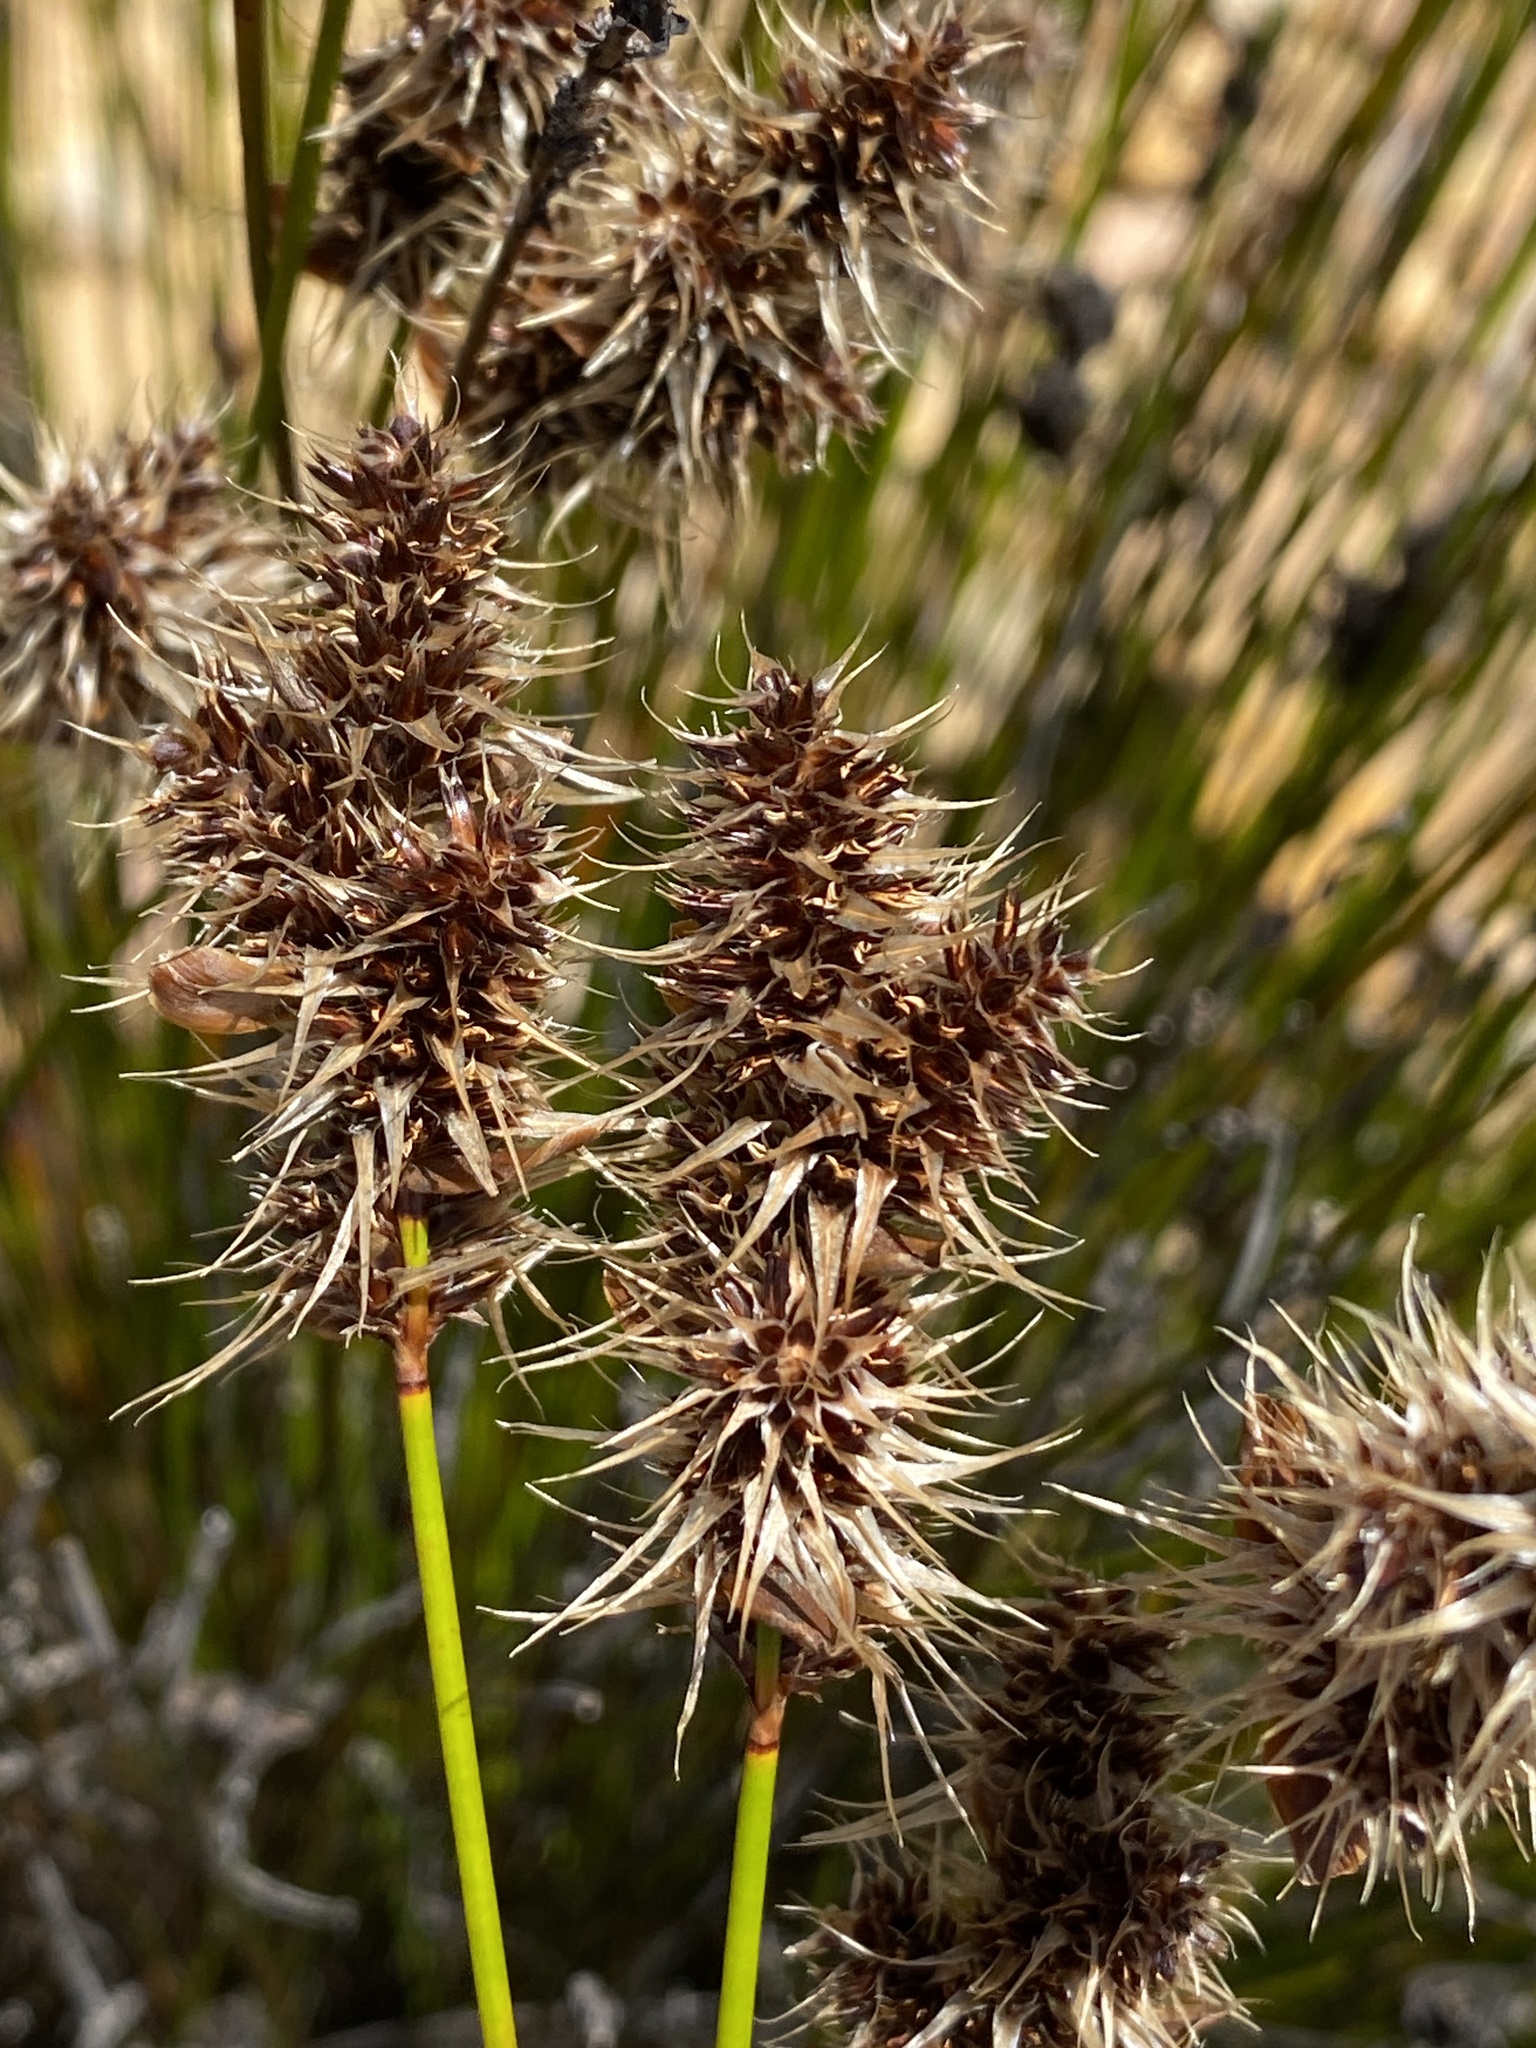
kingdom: Plantae
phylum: Tracheophyta
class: Liliopsida
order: Poales
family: Restionaceae
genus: Askidiosperma
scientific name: Askidiosperma capitatum
